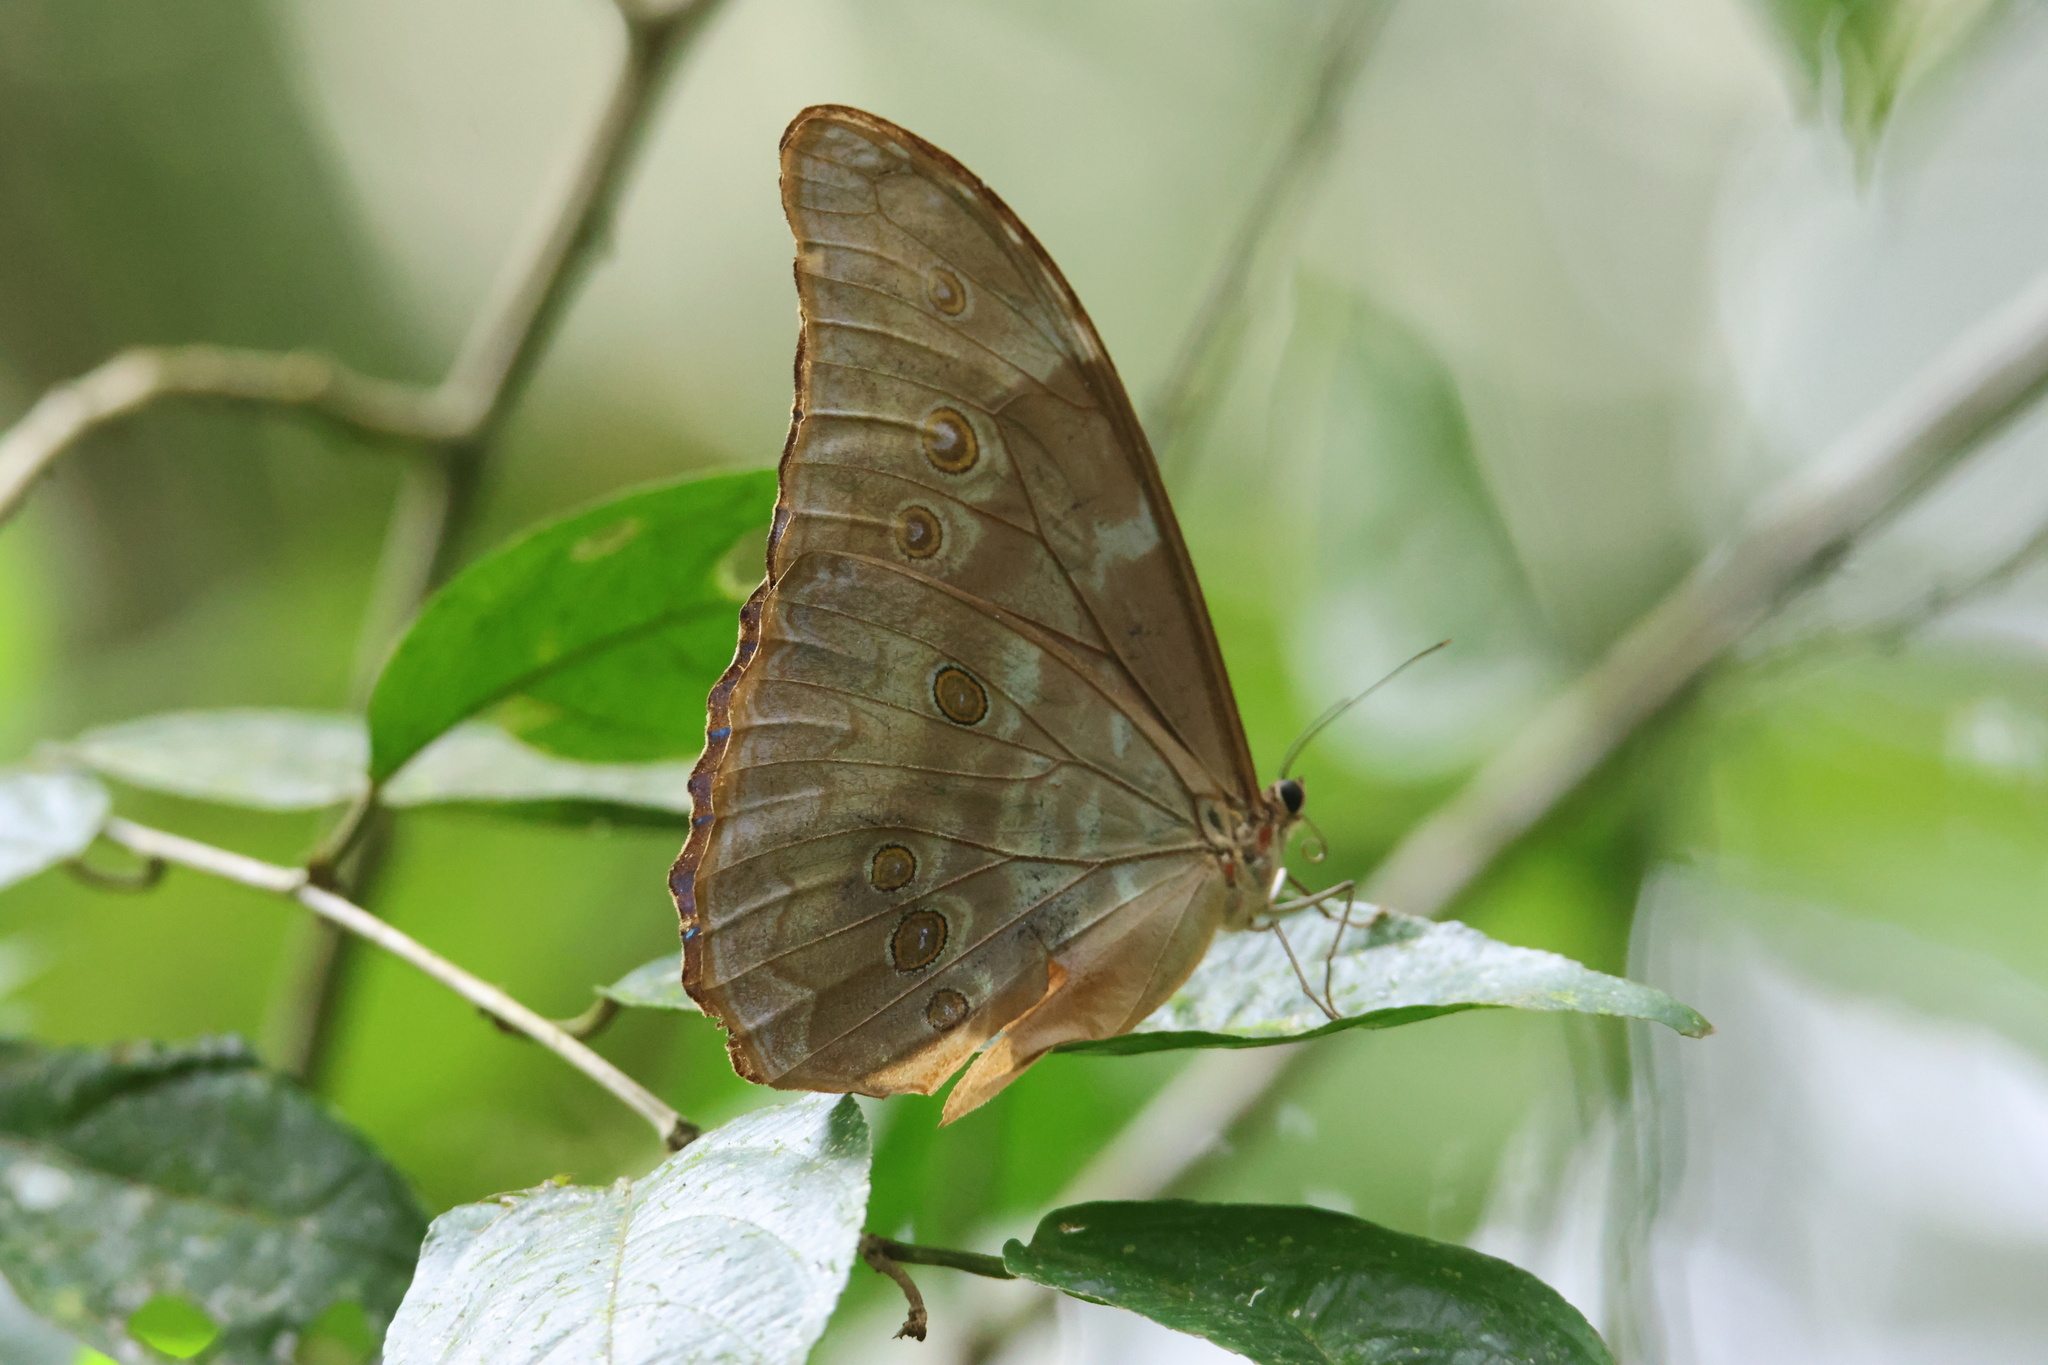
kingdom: Animalia
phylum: Arthropoda
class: Insecta
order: Lepidoptera
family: Nymphalidae
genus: Morpho
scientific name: Morpho amathonte
